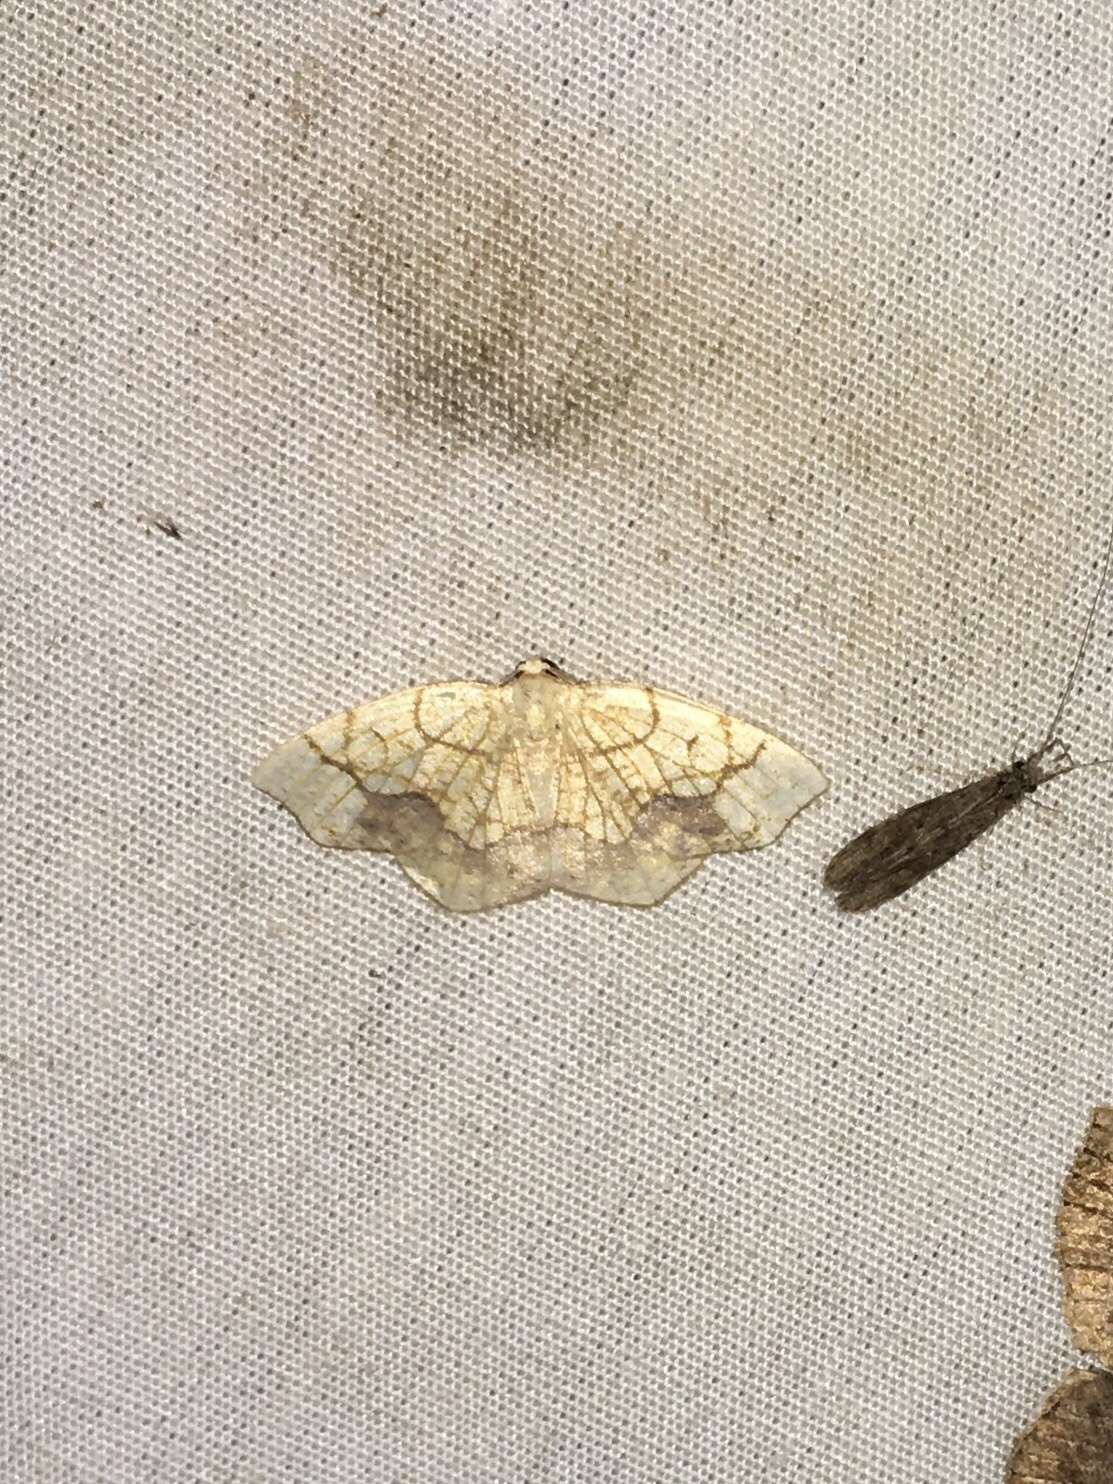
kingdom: Animalia
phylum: Arthropoda
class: Insecta
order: Lepidoptera
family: Geometridae
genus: Nematocampa
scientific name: Nematocampa resistaria
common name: Horned spanworm moth
